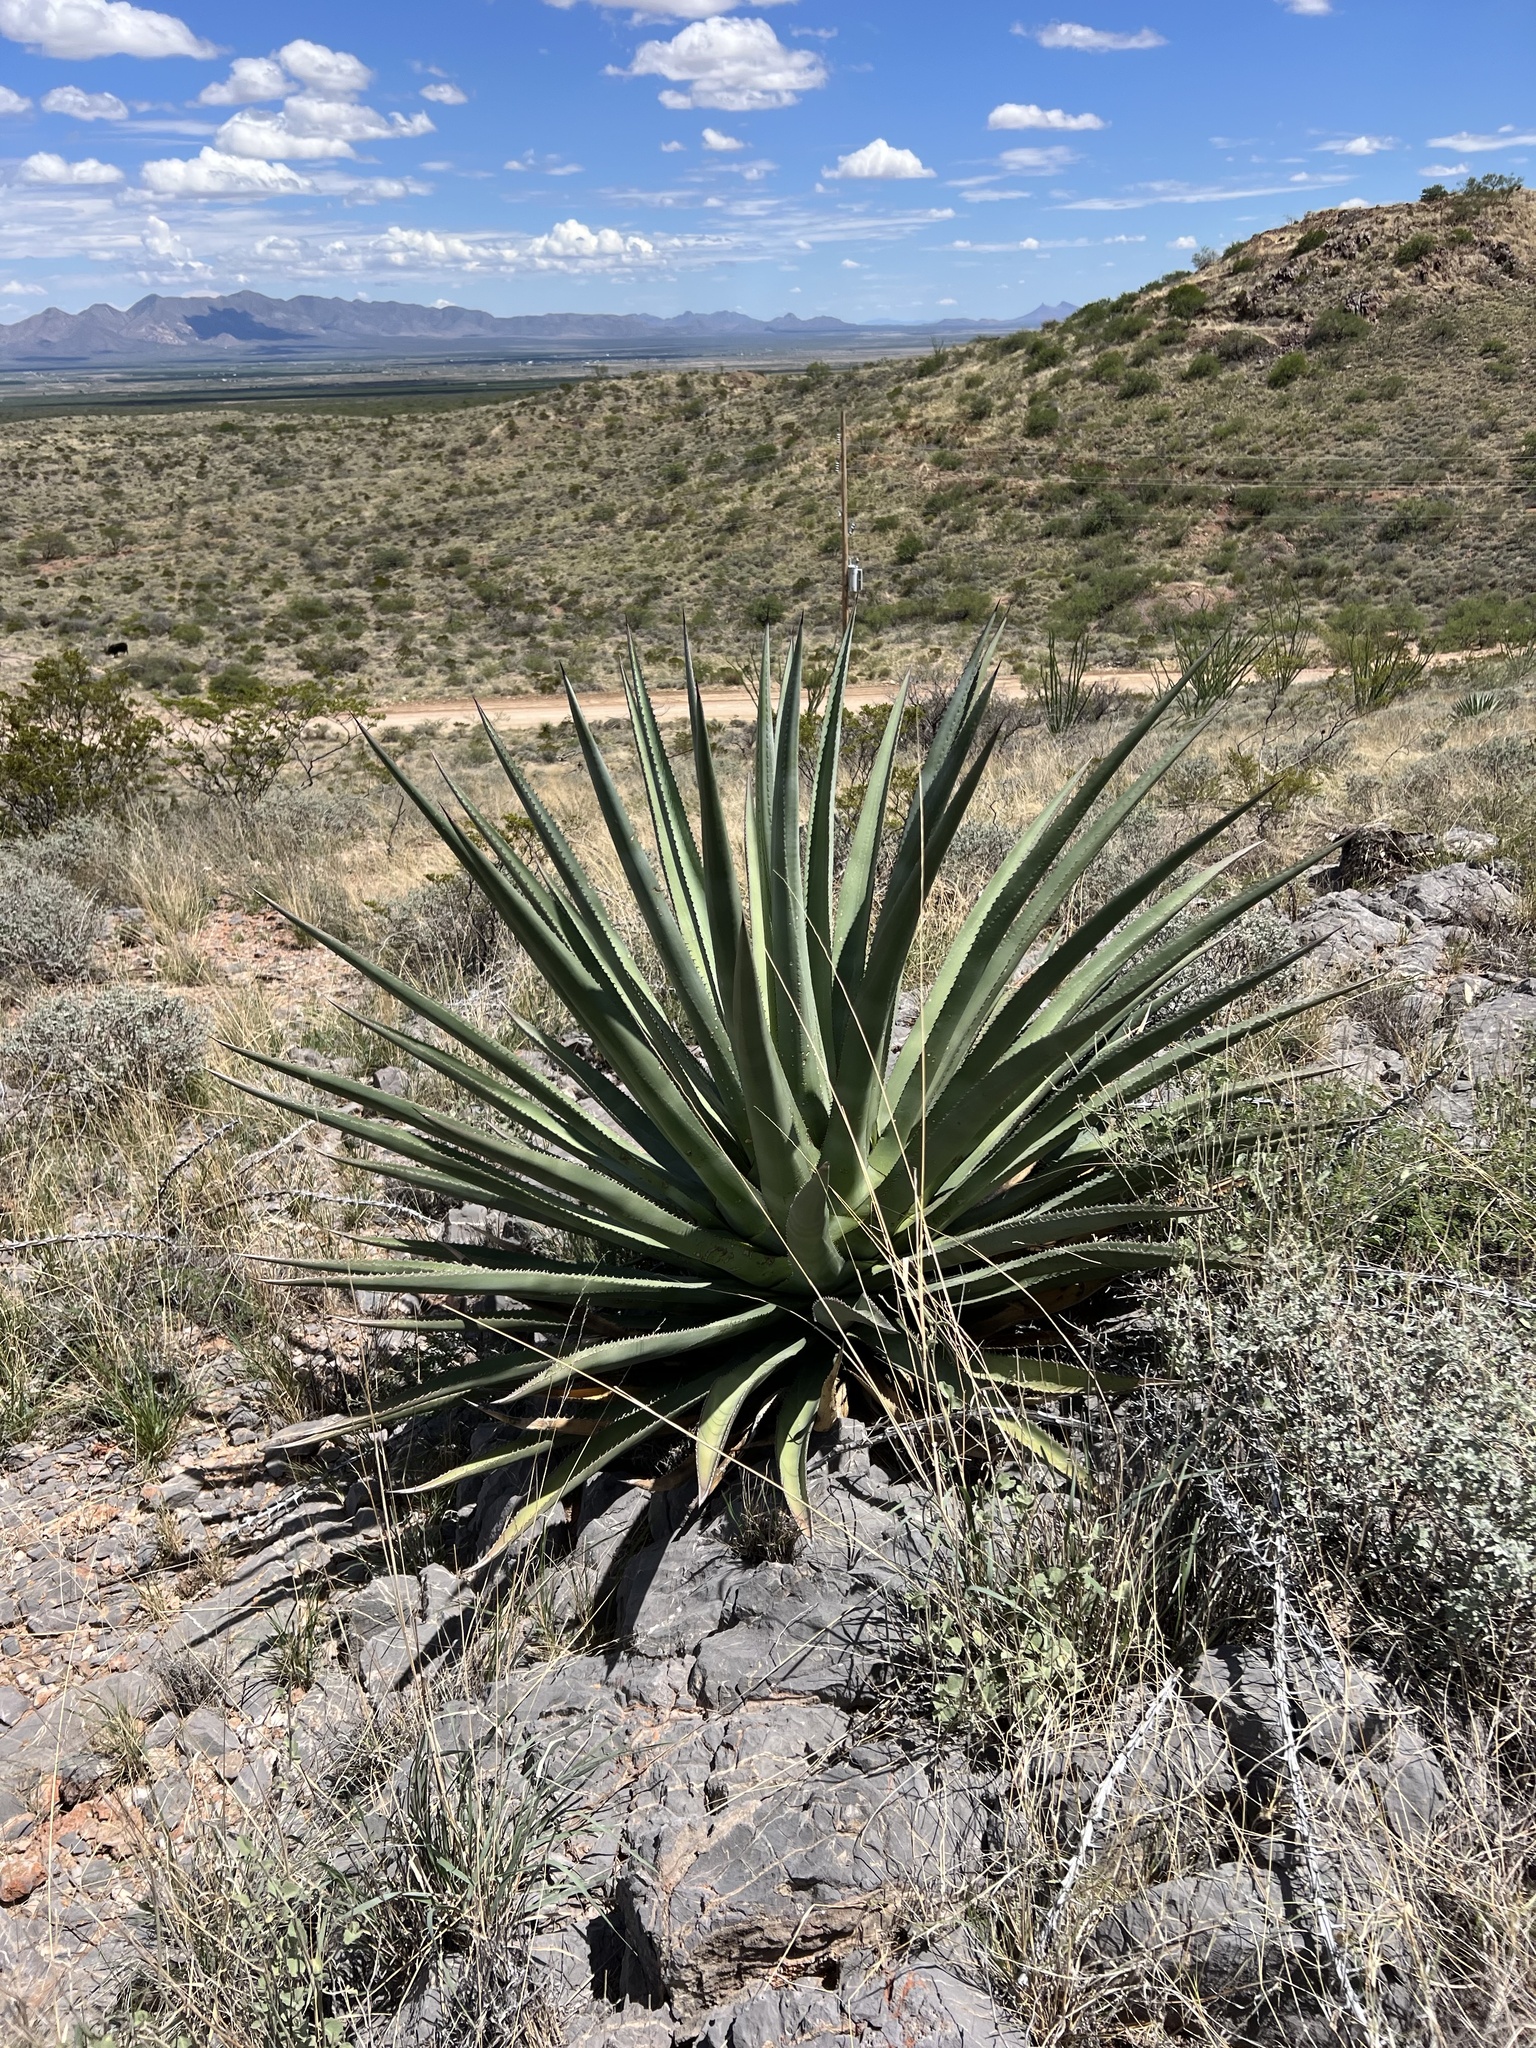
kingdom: Plantae
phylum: Tracheophyta
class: Liliopsida
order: Asparagales
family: Asparagaceae
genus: Agave
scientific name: Agave palmeri
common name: Palmer agave
